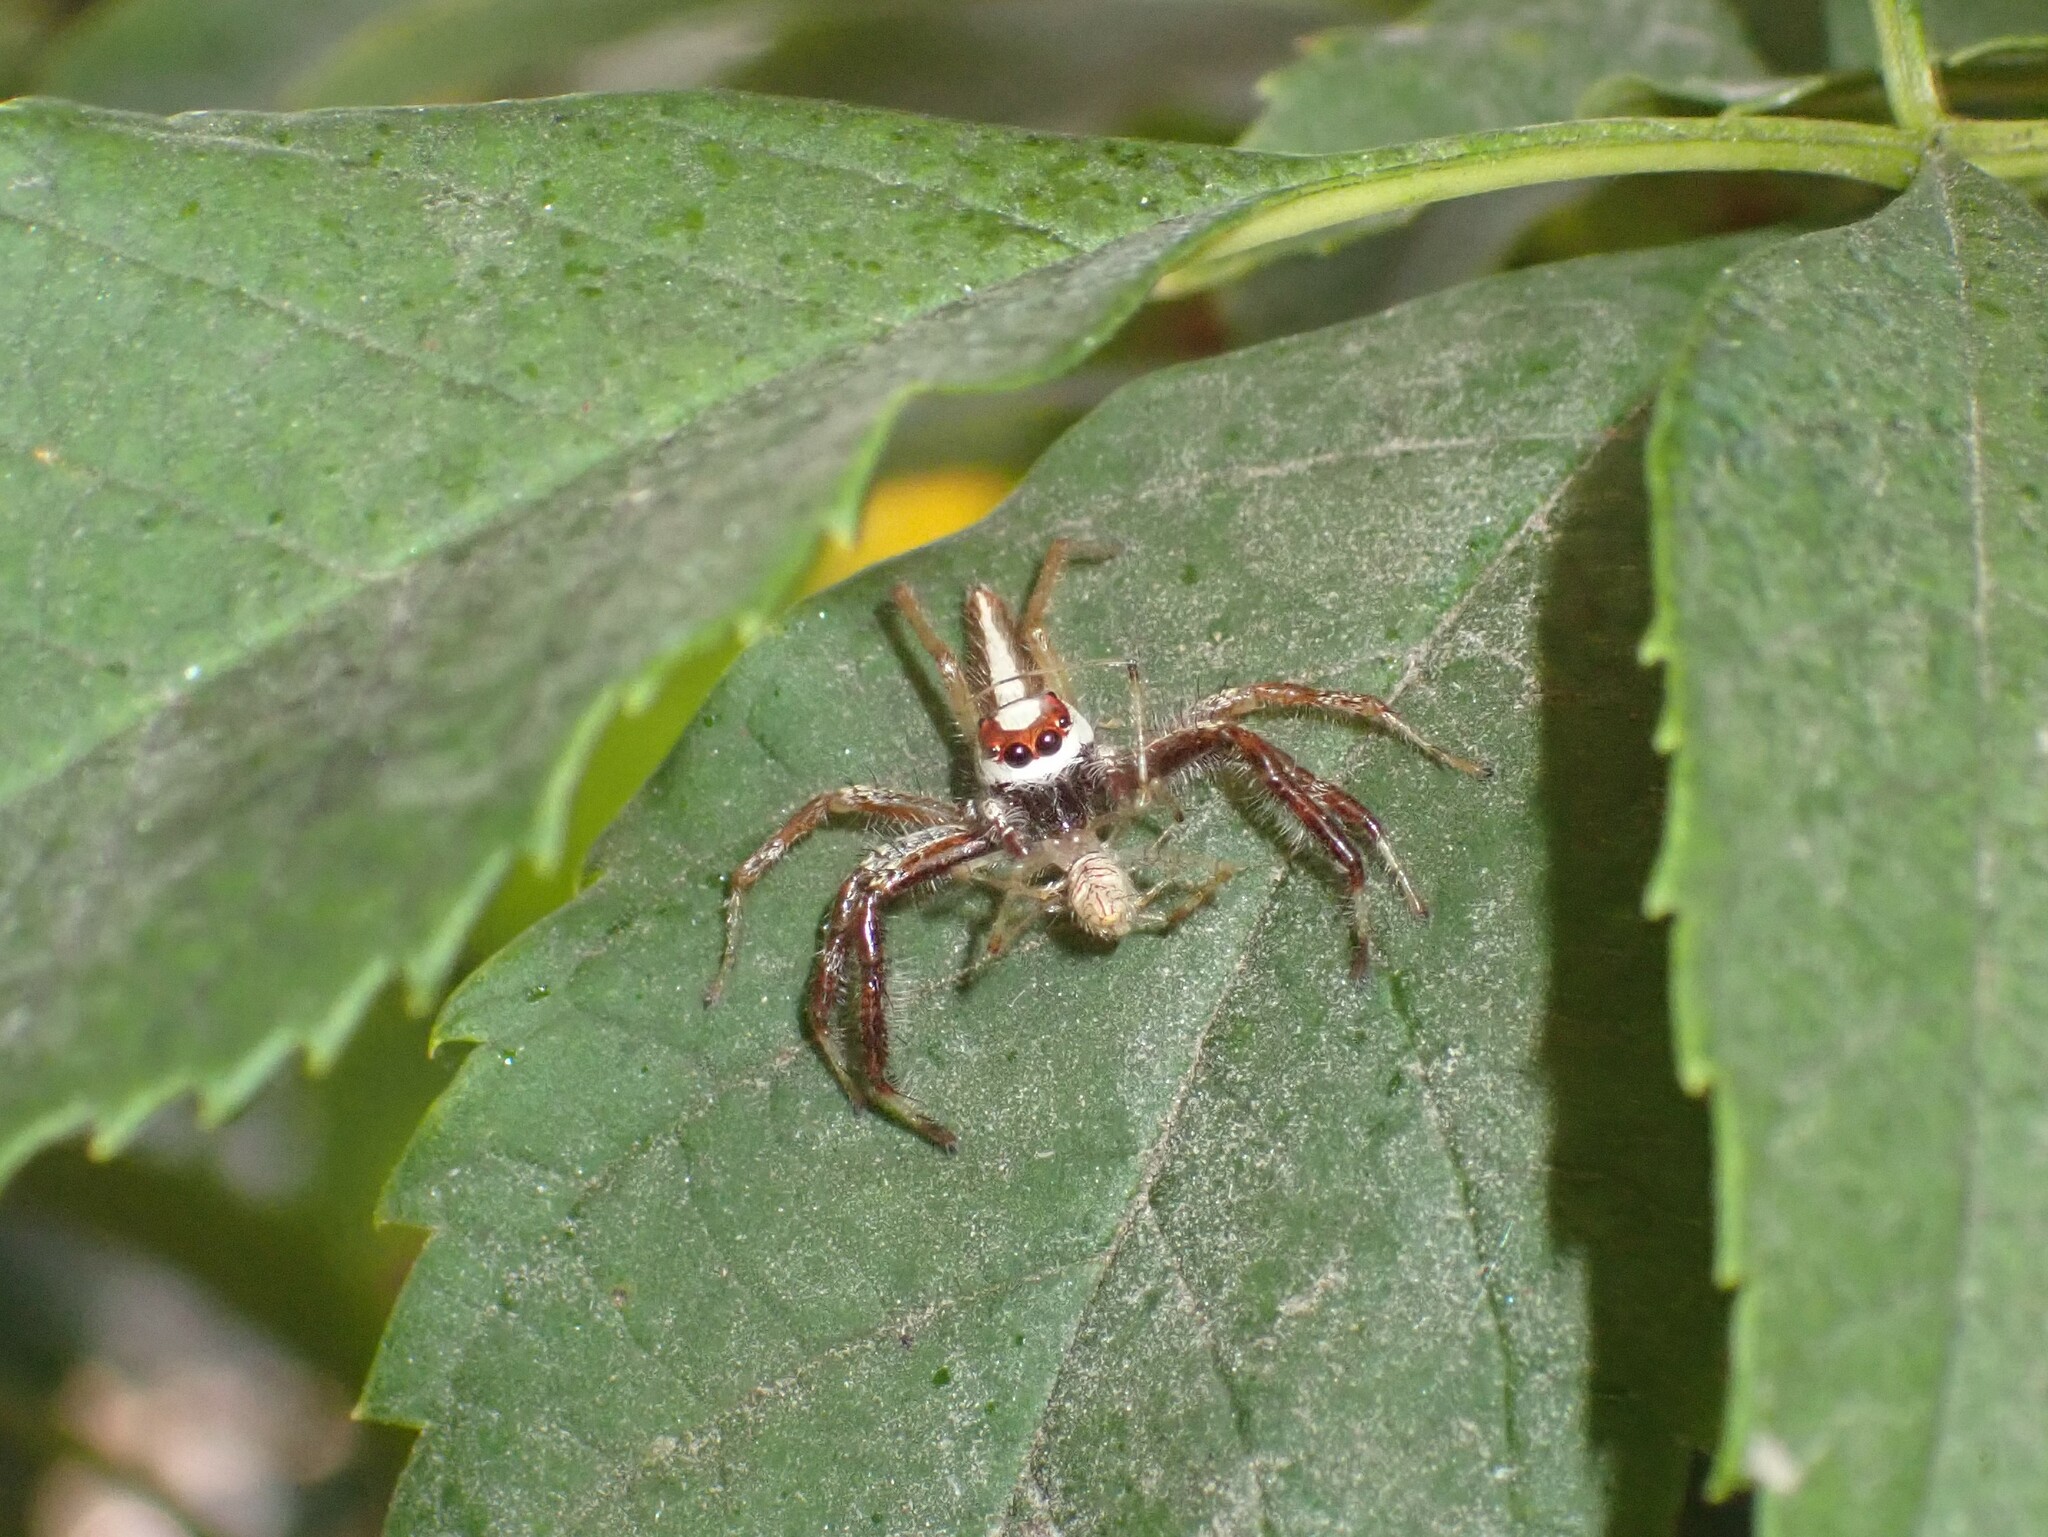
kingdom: Animalia
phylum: Arthropoda
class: Arachnida
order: Araneae
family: Salticidae
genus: Telamonia
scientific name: Telamonia dimidiata
